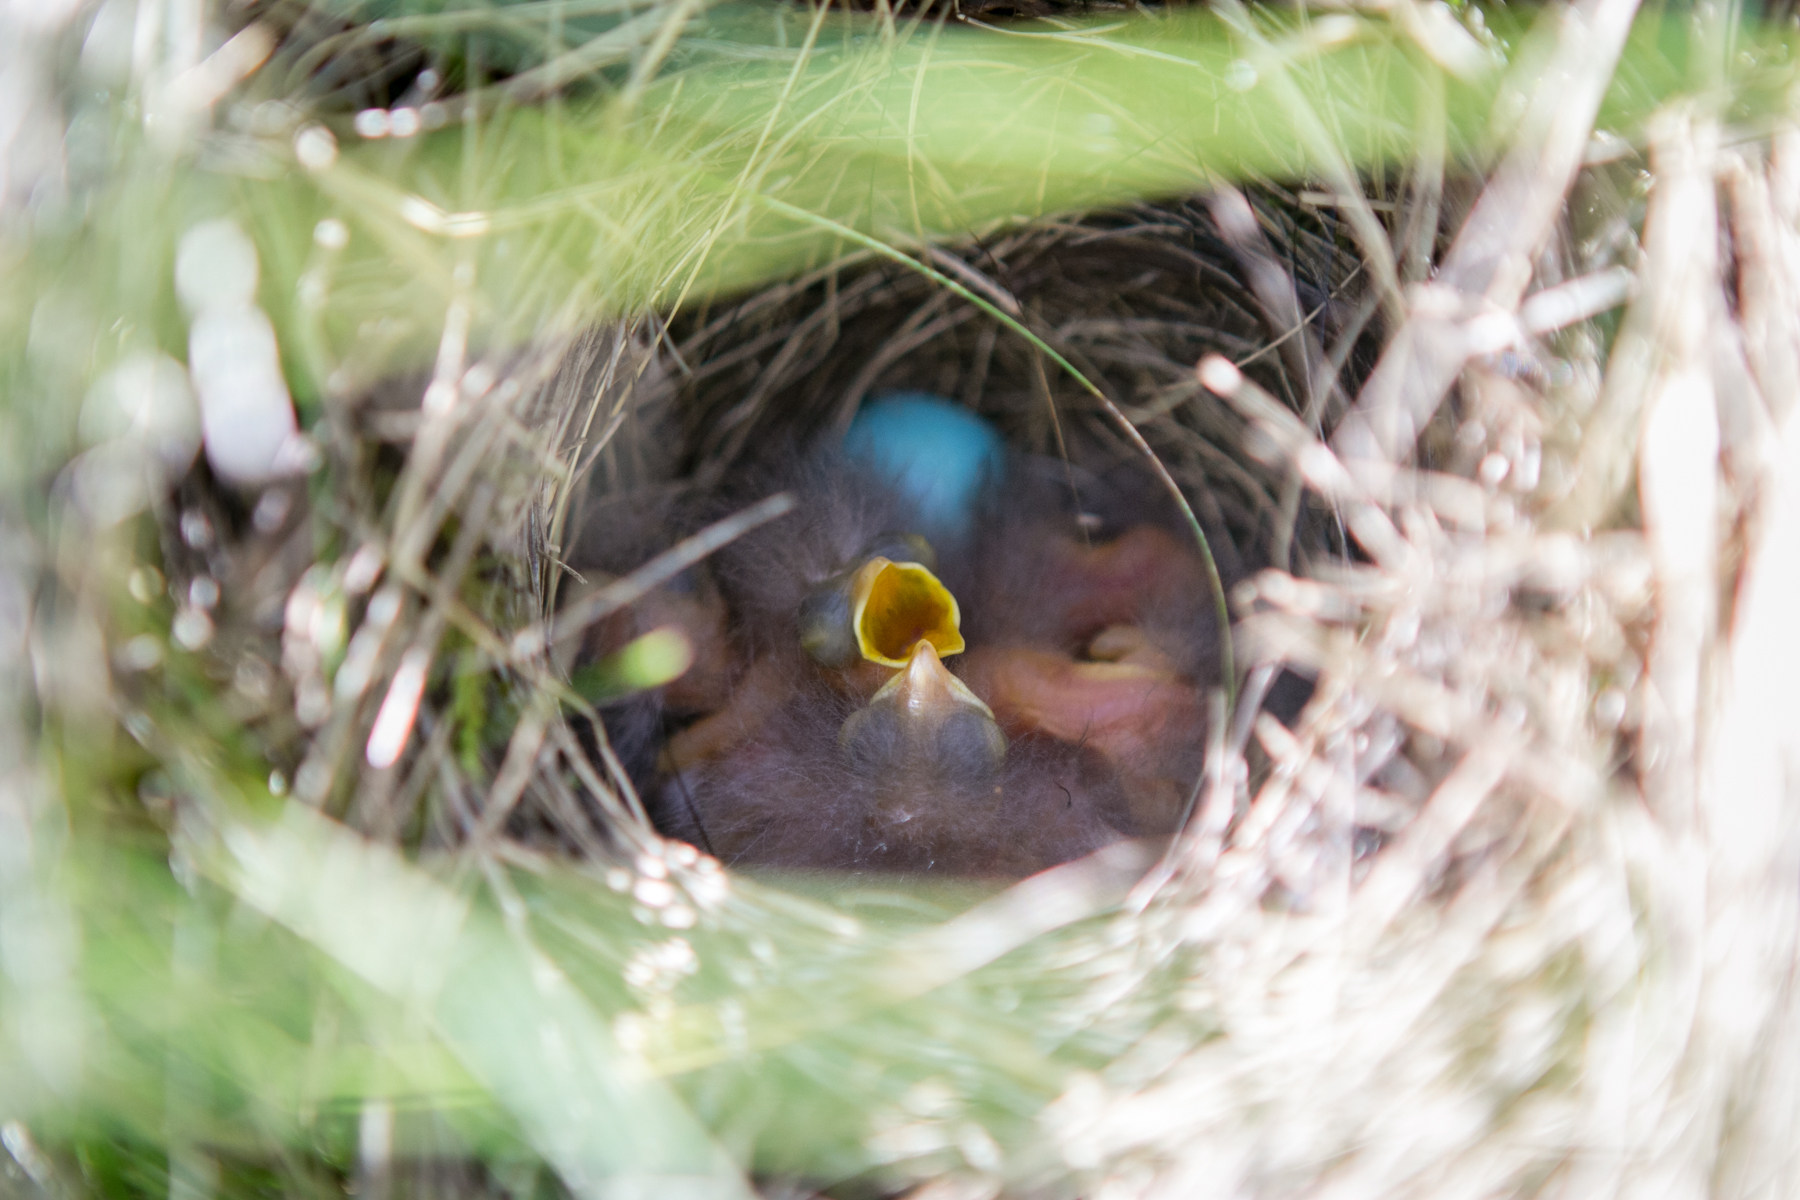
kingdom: Animalia
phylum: Chordata
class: Aves
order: Passeriformes
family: Muscicapidae
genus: Saxicola
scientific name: Saxicola rubetra
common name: Whinchat
